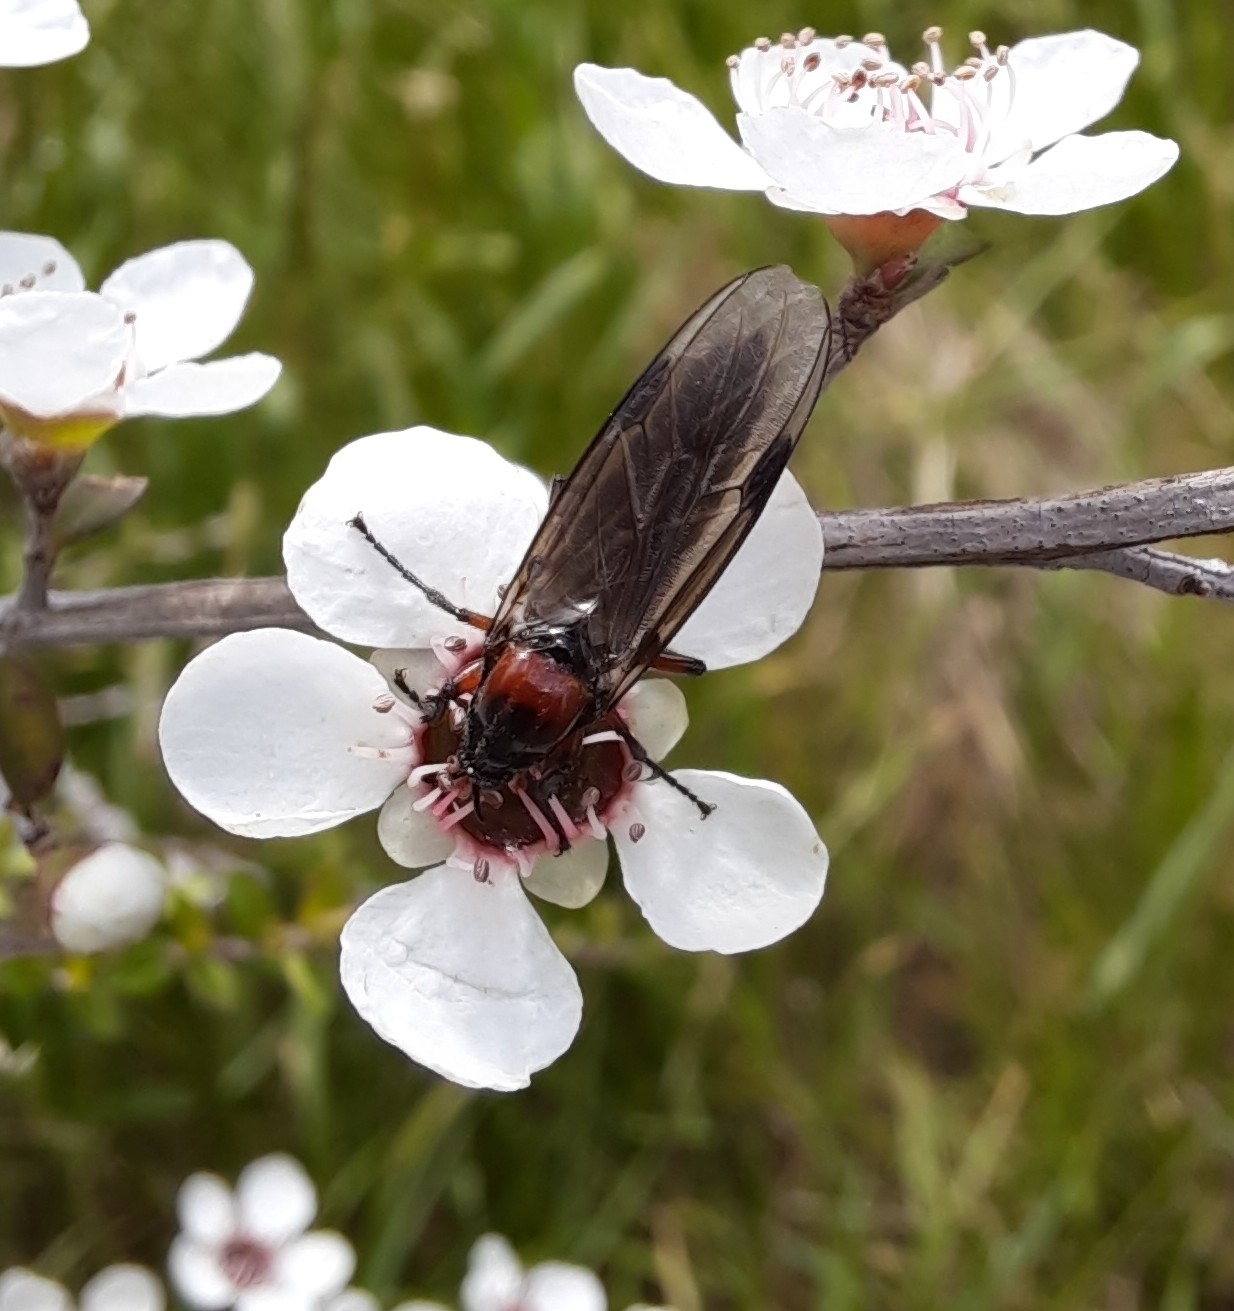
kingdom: Animalia
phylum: Arthropoda
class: Insecta
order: Diptera
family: Bibionidae
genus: Dilophus
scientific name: Dilophus nigrostigma
